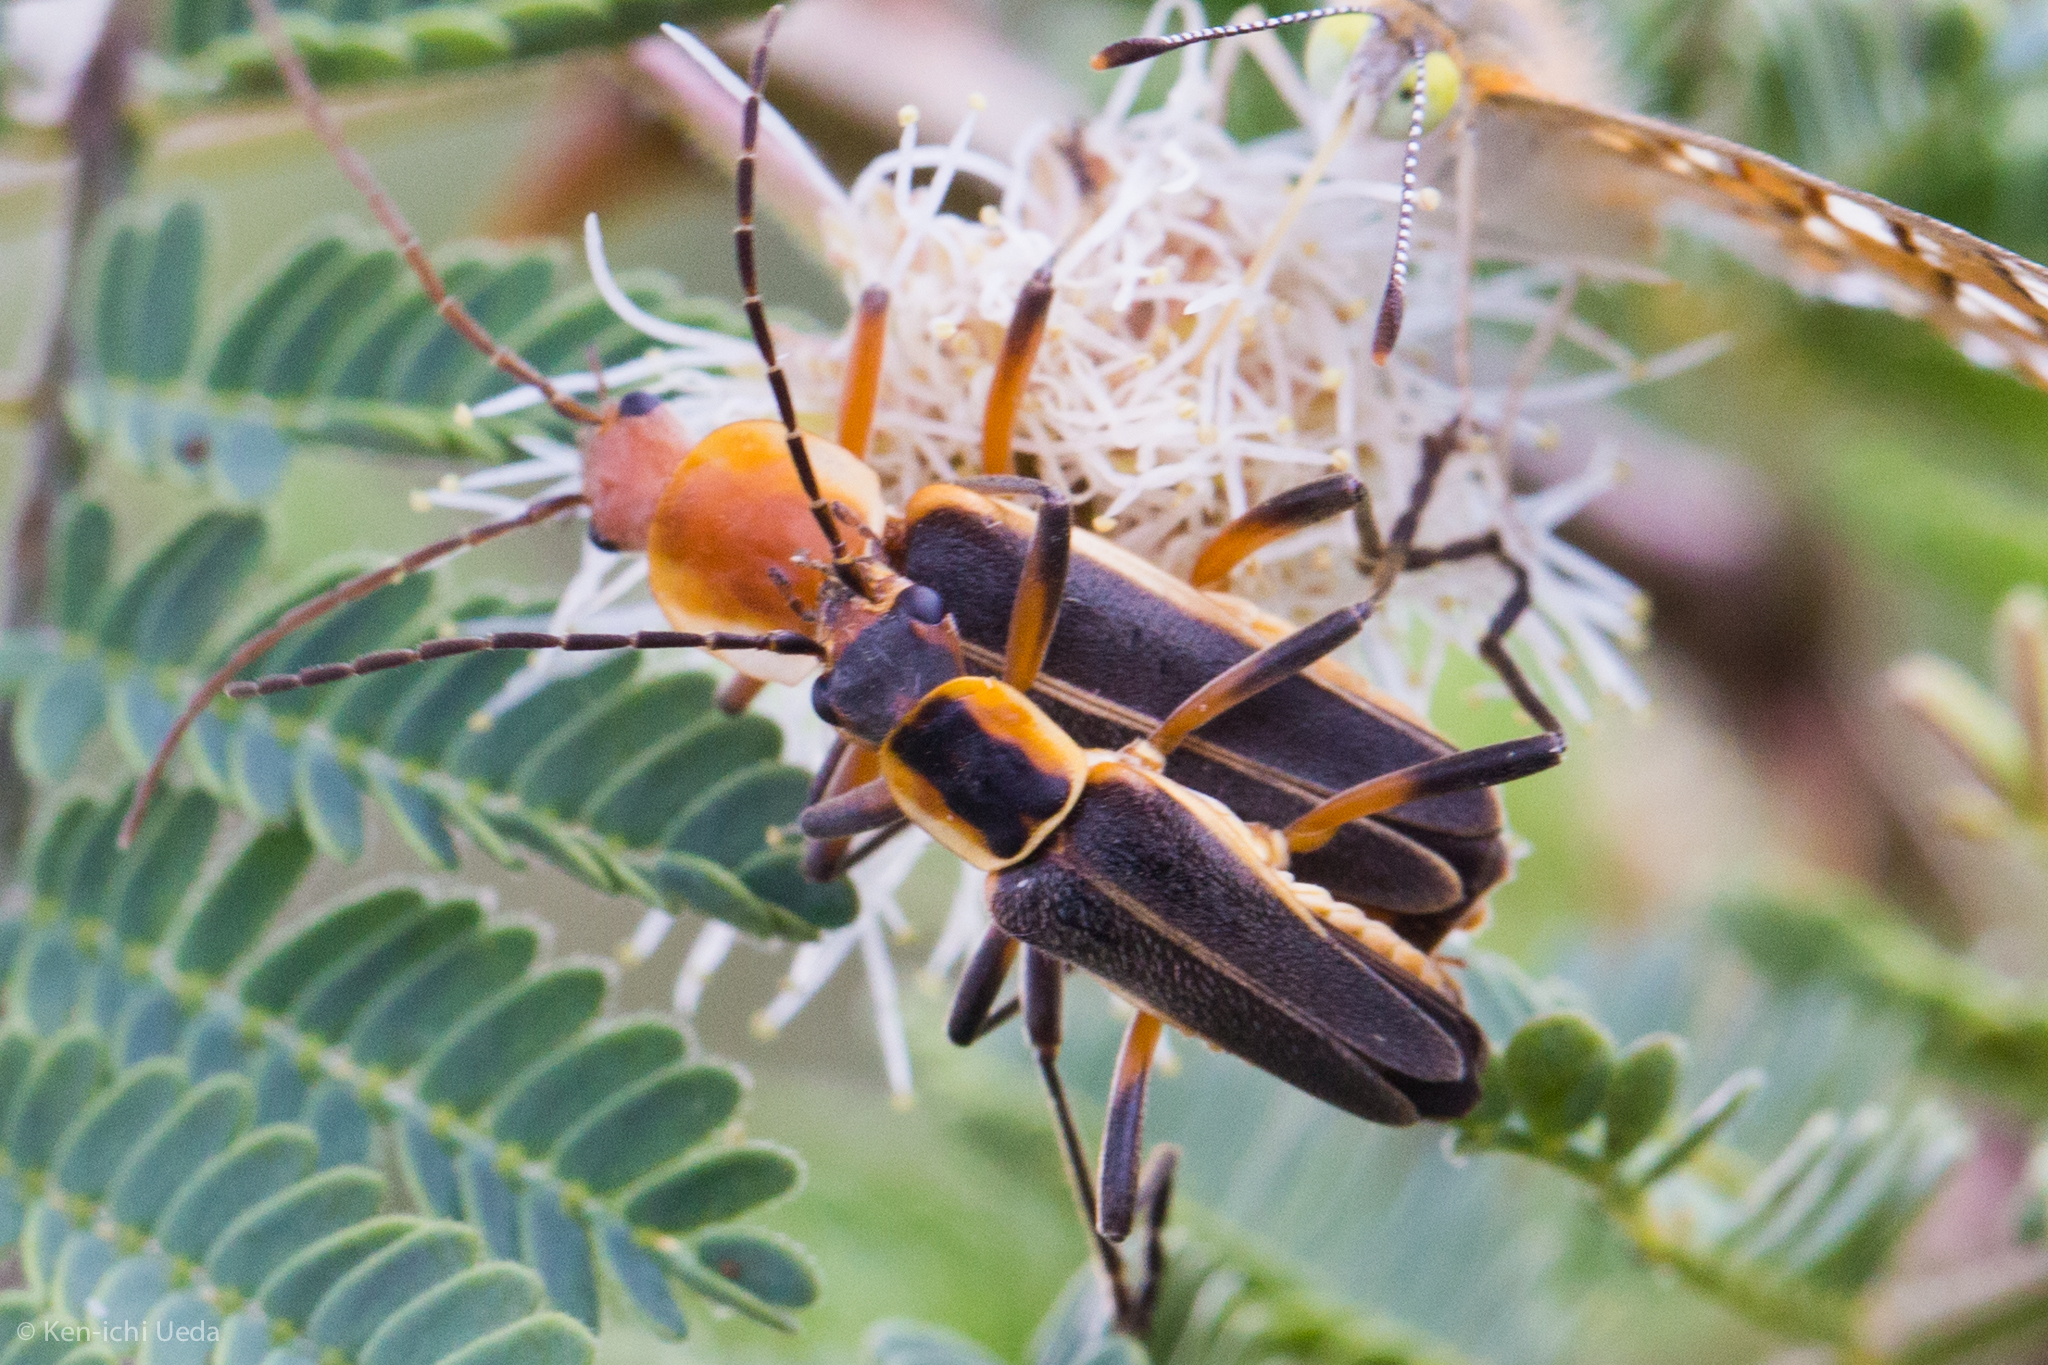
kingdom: Animalia
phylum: Arthropoda
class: Insecta
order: Coleoptera
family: Cantharidae
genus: Chauliognathus
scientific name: Chauliognathus obscurus
